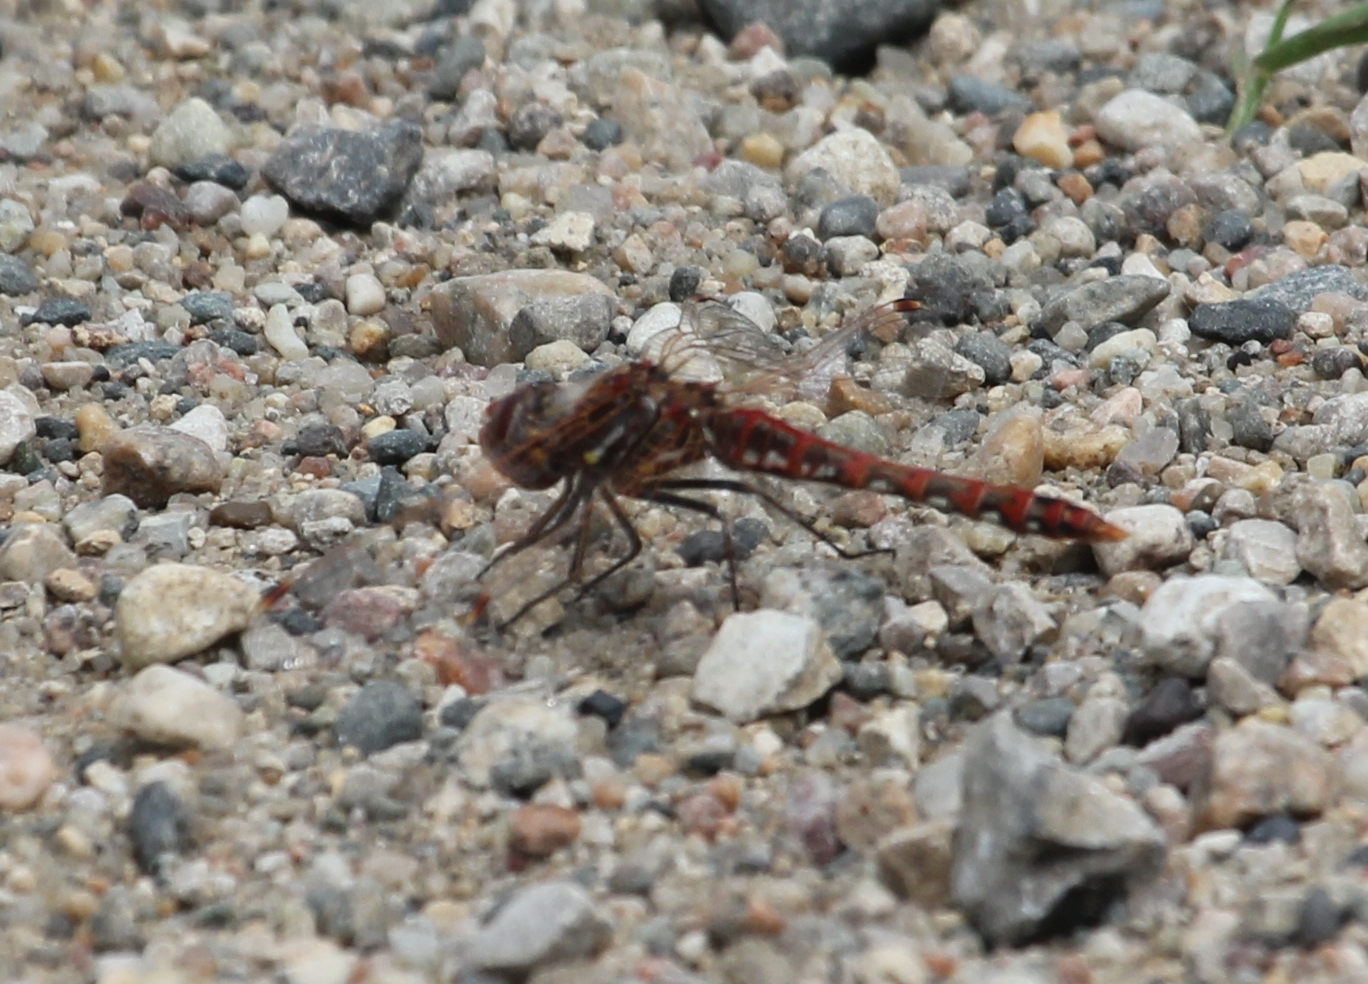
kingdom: Animalia
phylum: Arthropoda
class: Insecta
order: Odonata
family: Libellulidae
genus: Sympetrum
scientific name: Sympetrum corruptum
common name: Variegated meadowhawk
